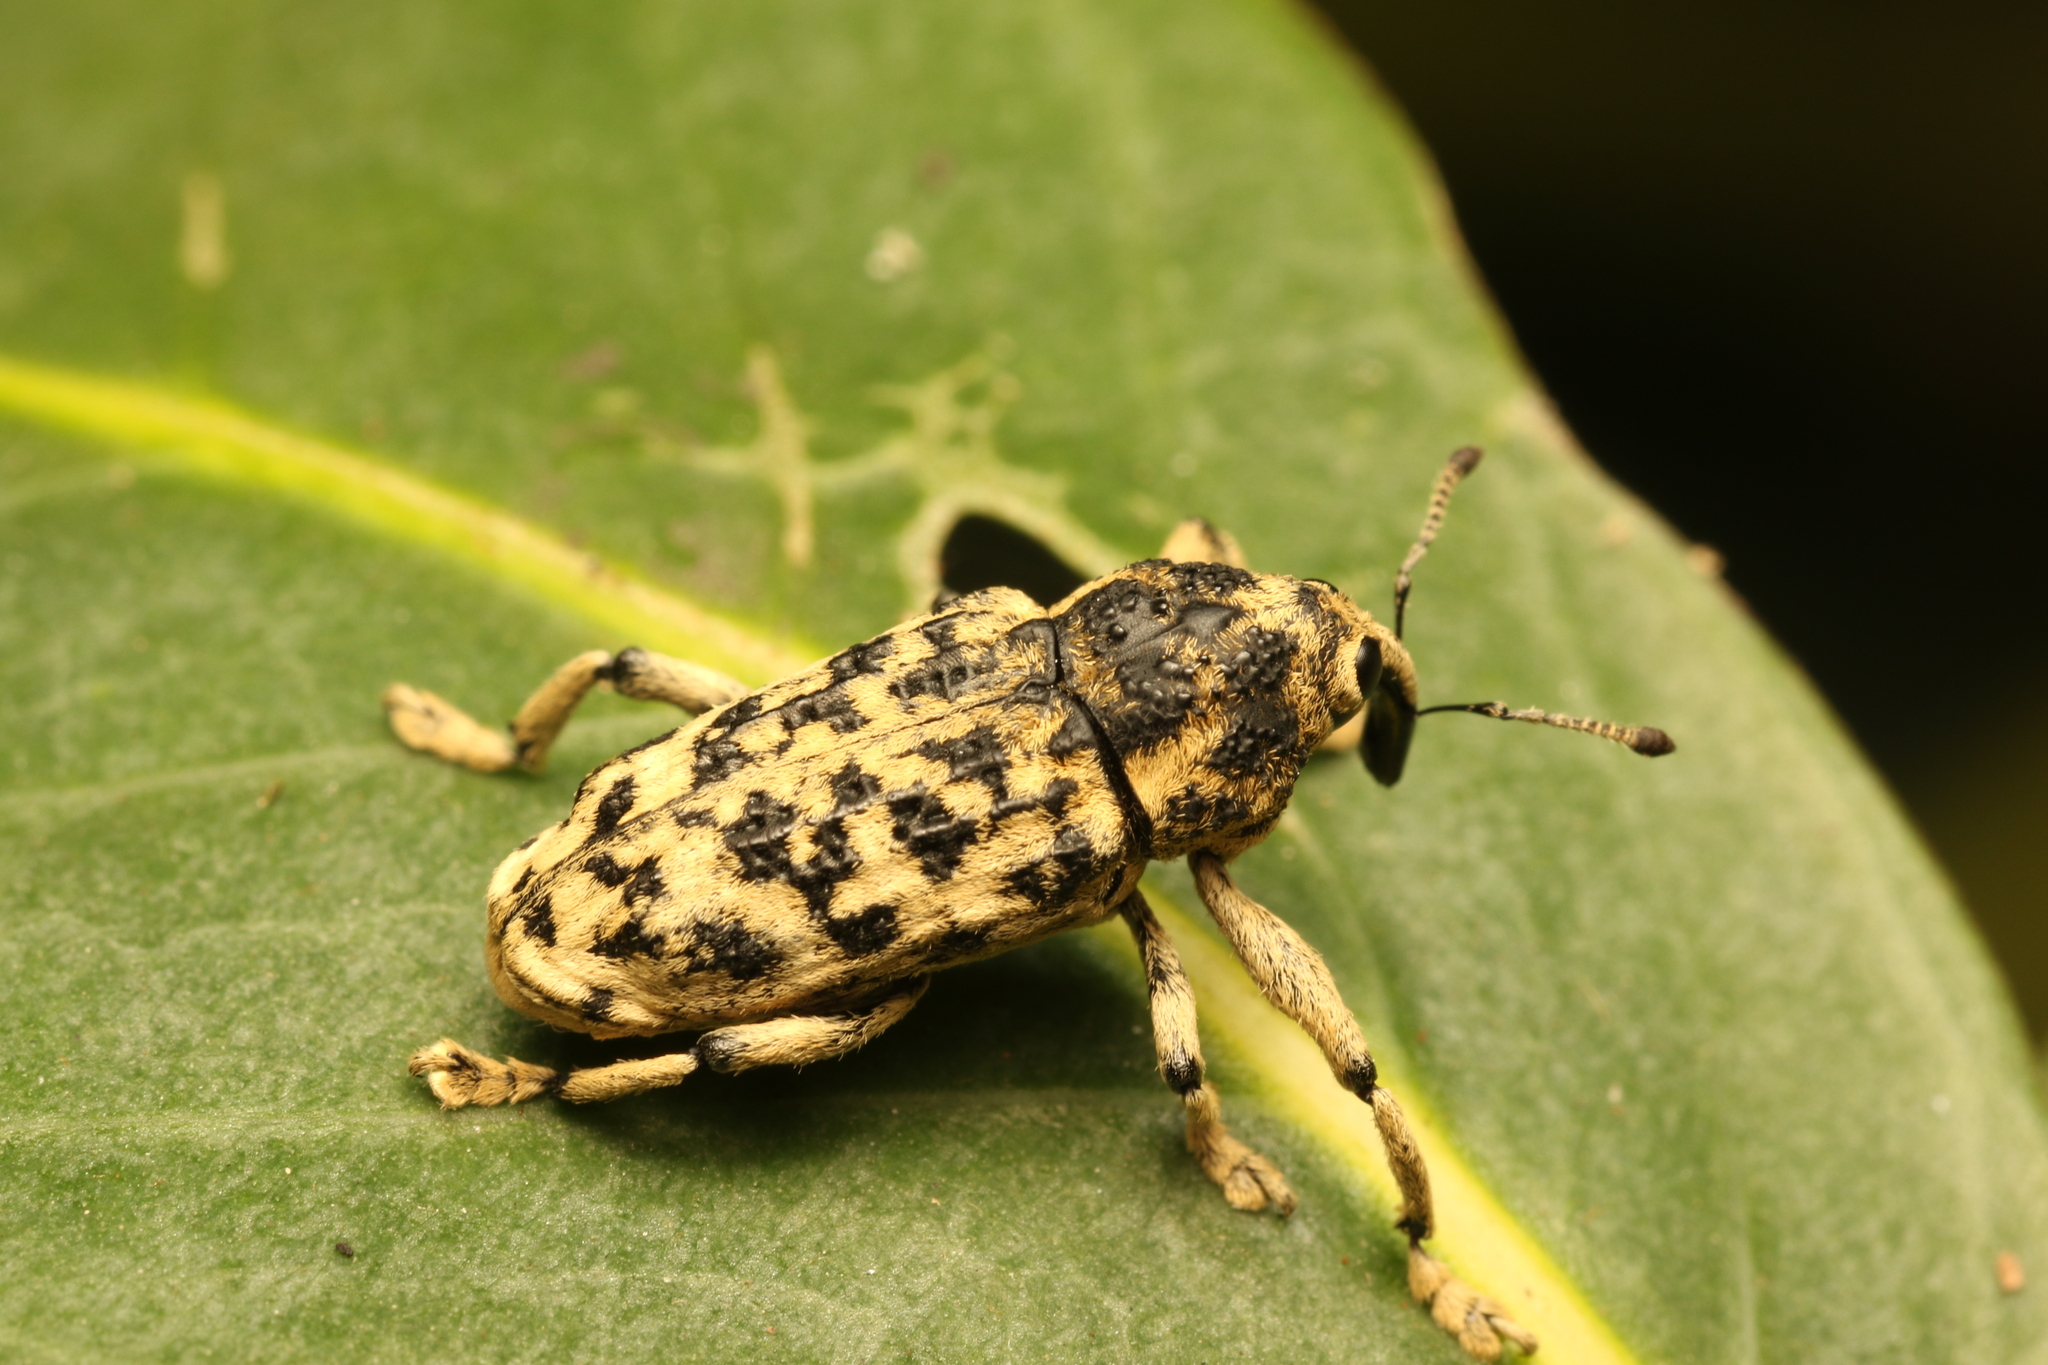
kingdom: Animalia
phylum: Arthropoda
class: Insecta
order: Coleoptera
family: Curculionidae
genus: Amerhinus
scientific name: Amerhinus olivieri
